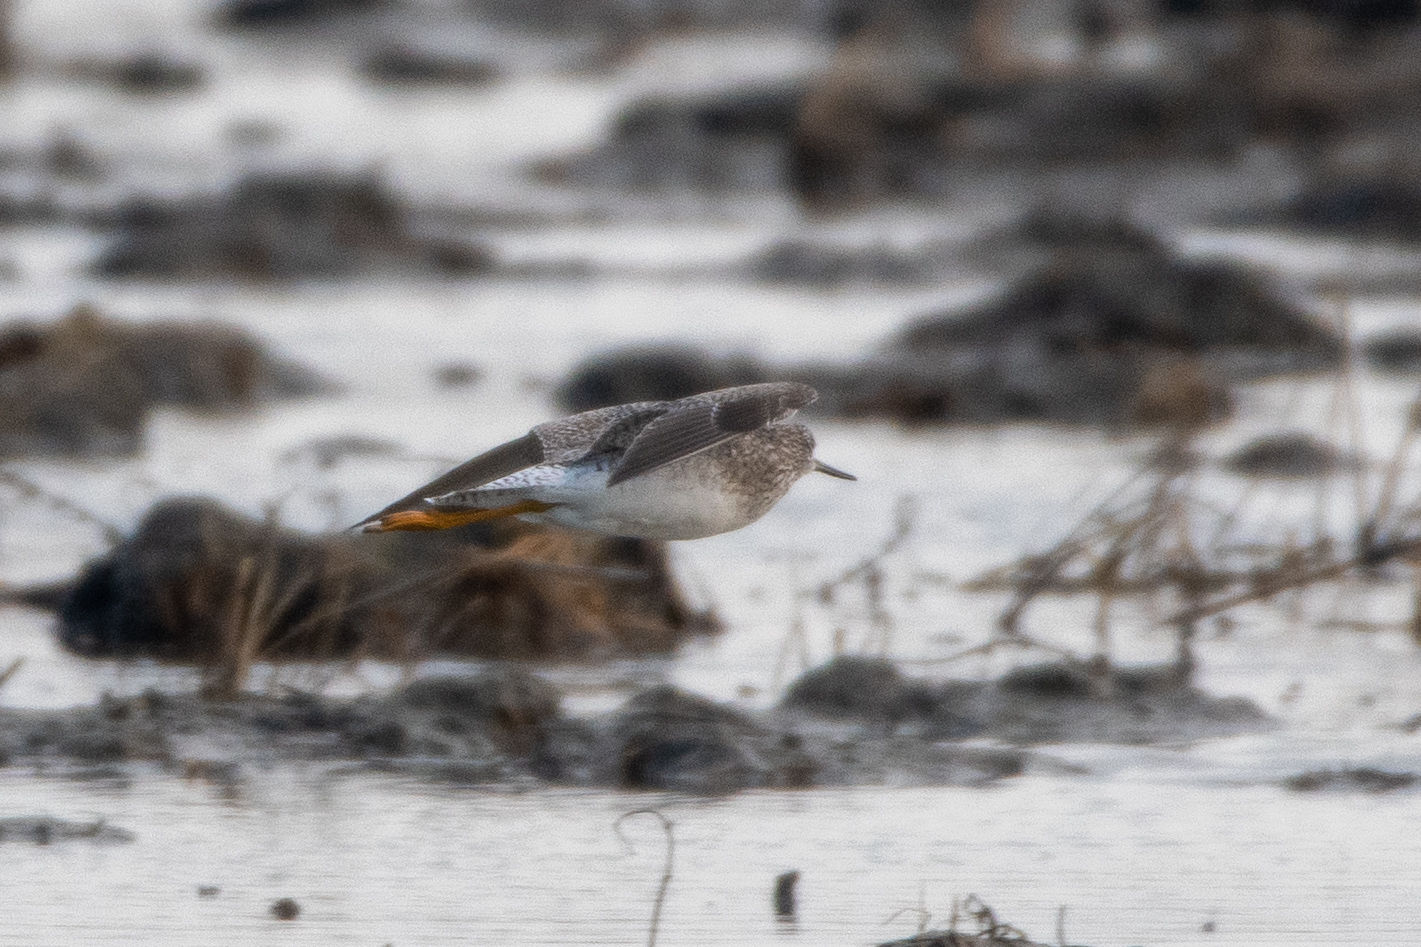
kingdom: Animalia
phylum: Chordata
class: Aves
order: Charadriiformes
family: Scolopacidae
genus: Tringa
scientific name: Tringa melanoleuca
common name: Greater yellowlegs
